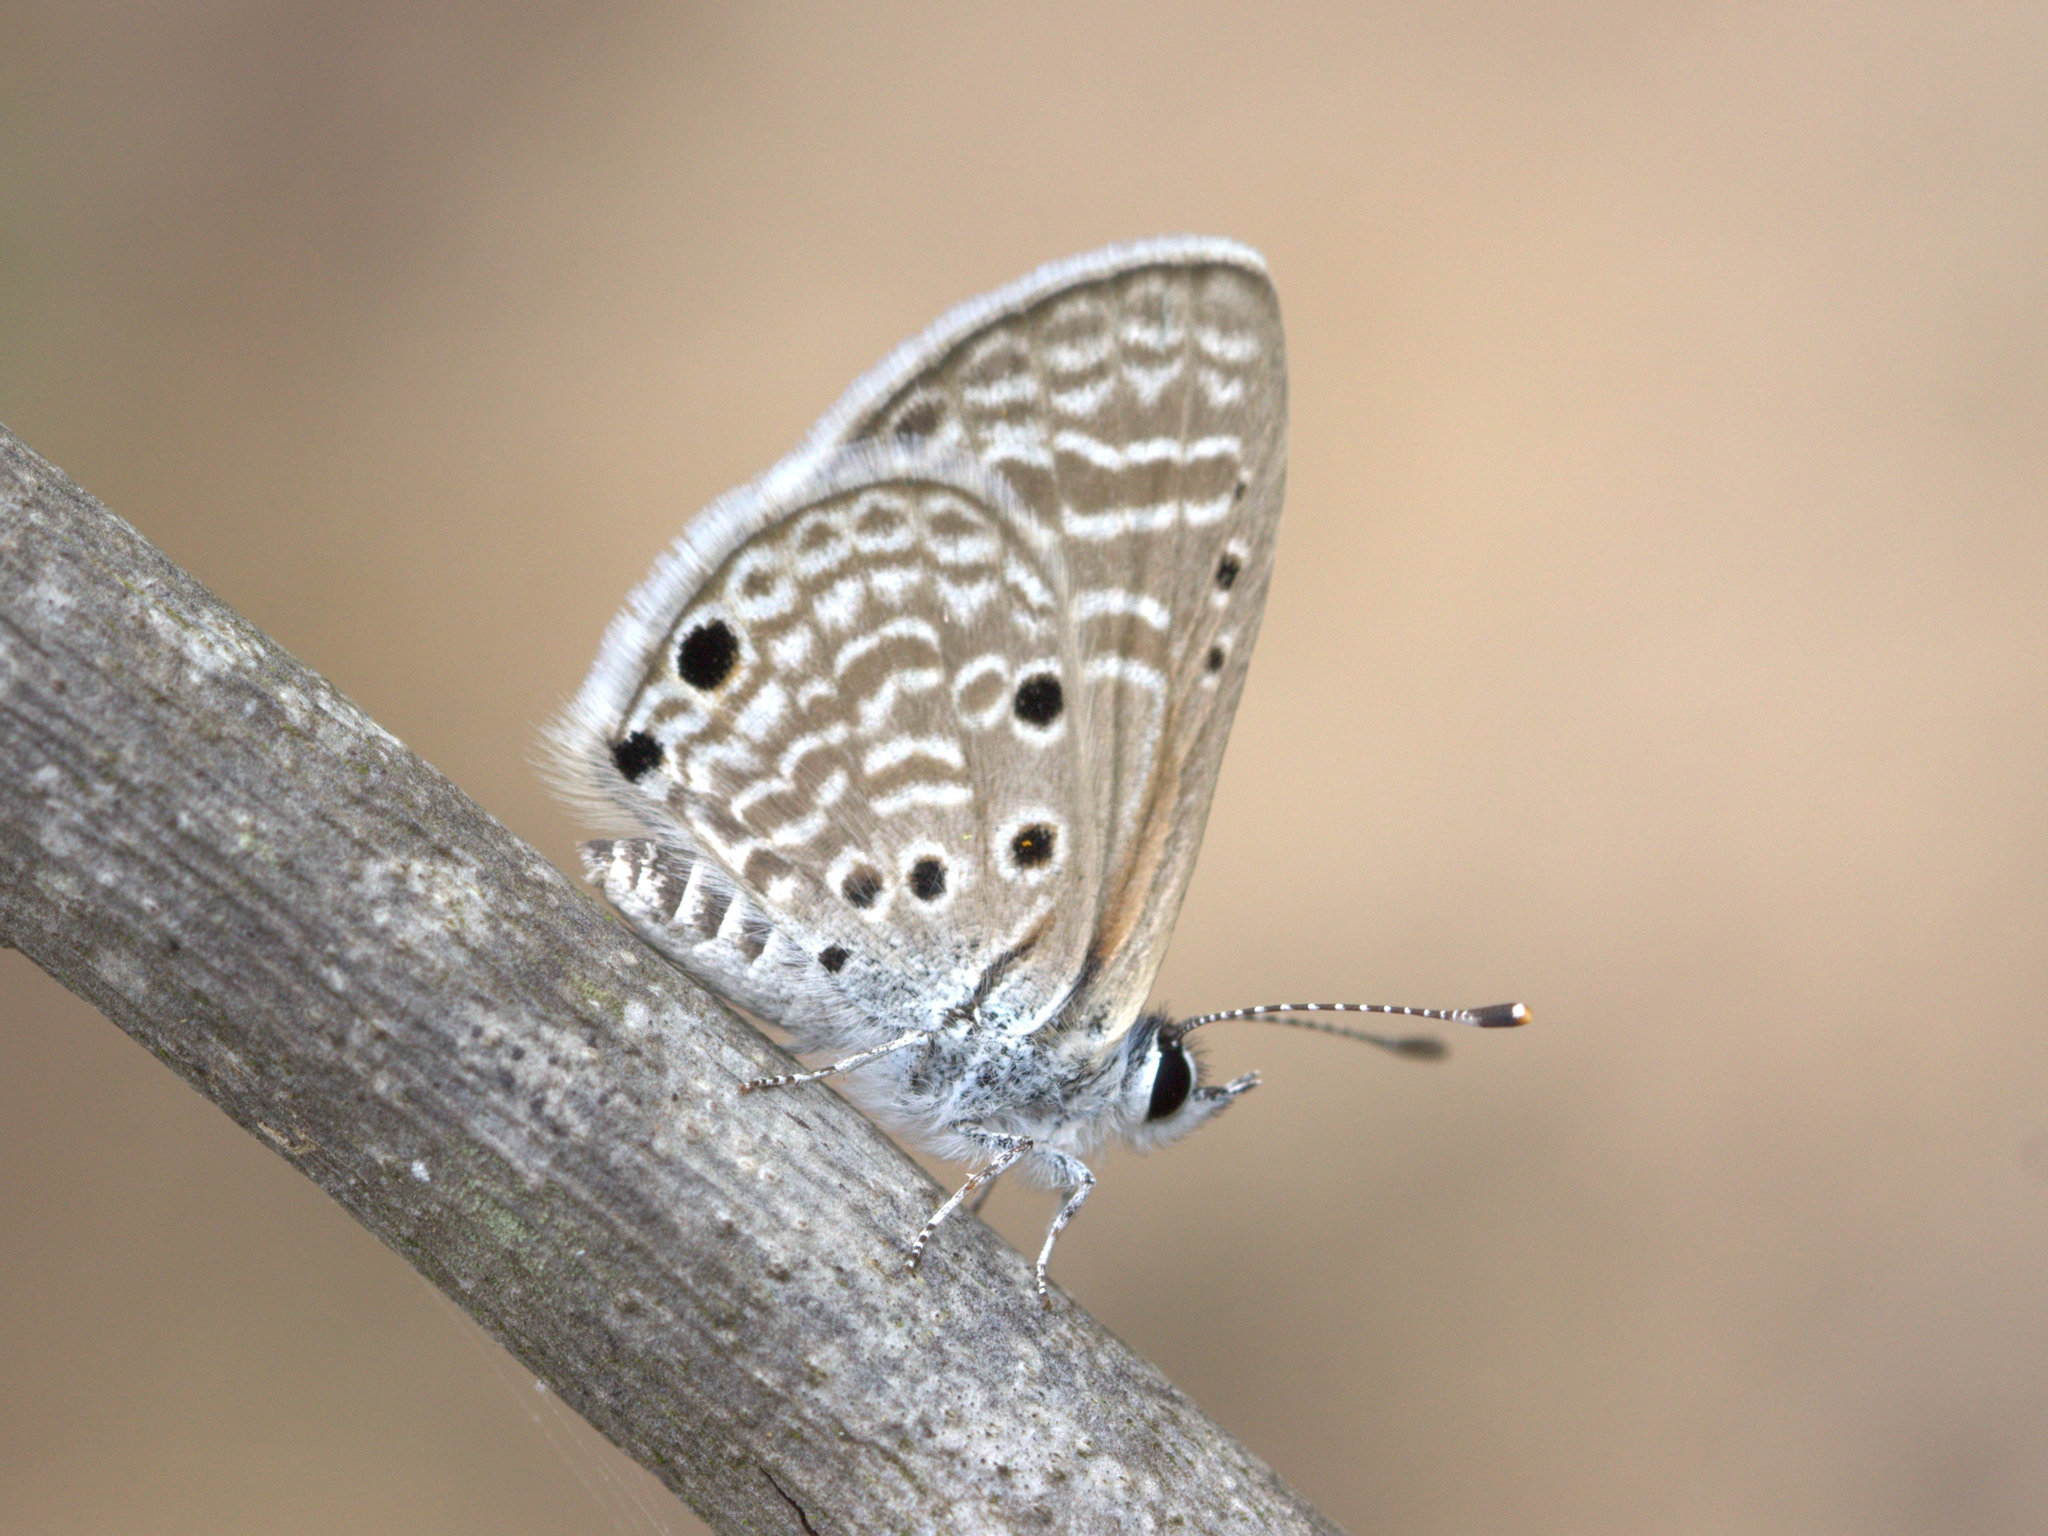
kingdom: Animalia
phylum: Arthropoda
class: Insecta
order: Lepidoptera
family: Lycaenidae
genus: Azanus
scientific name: Azanus ubaldus
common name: Desert babul blue
